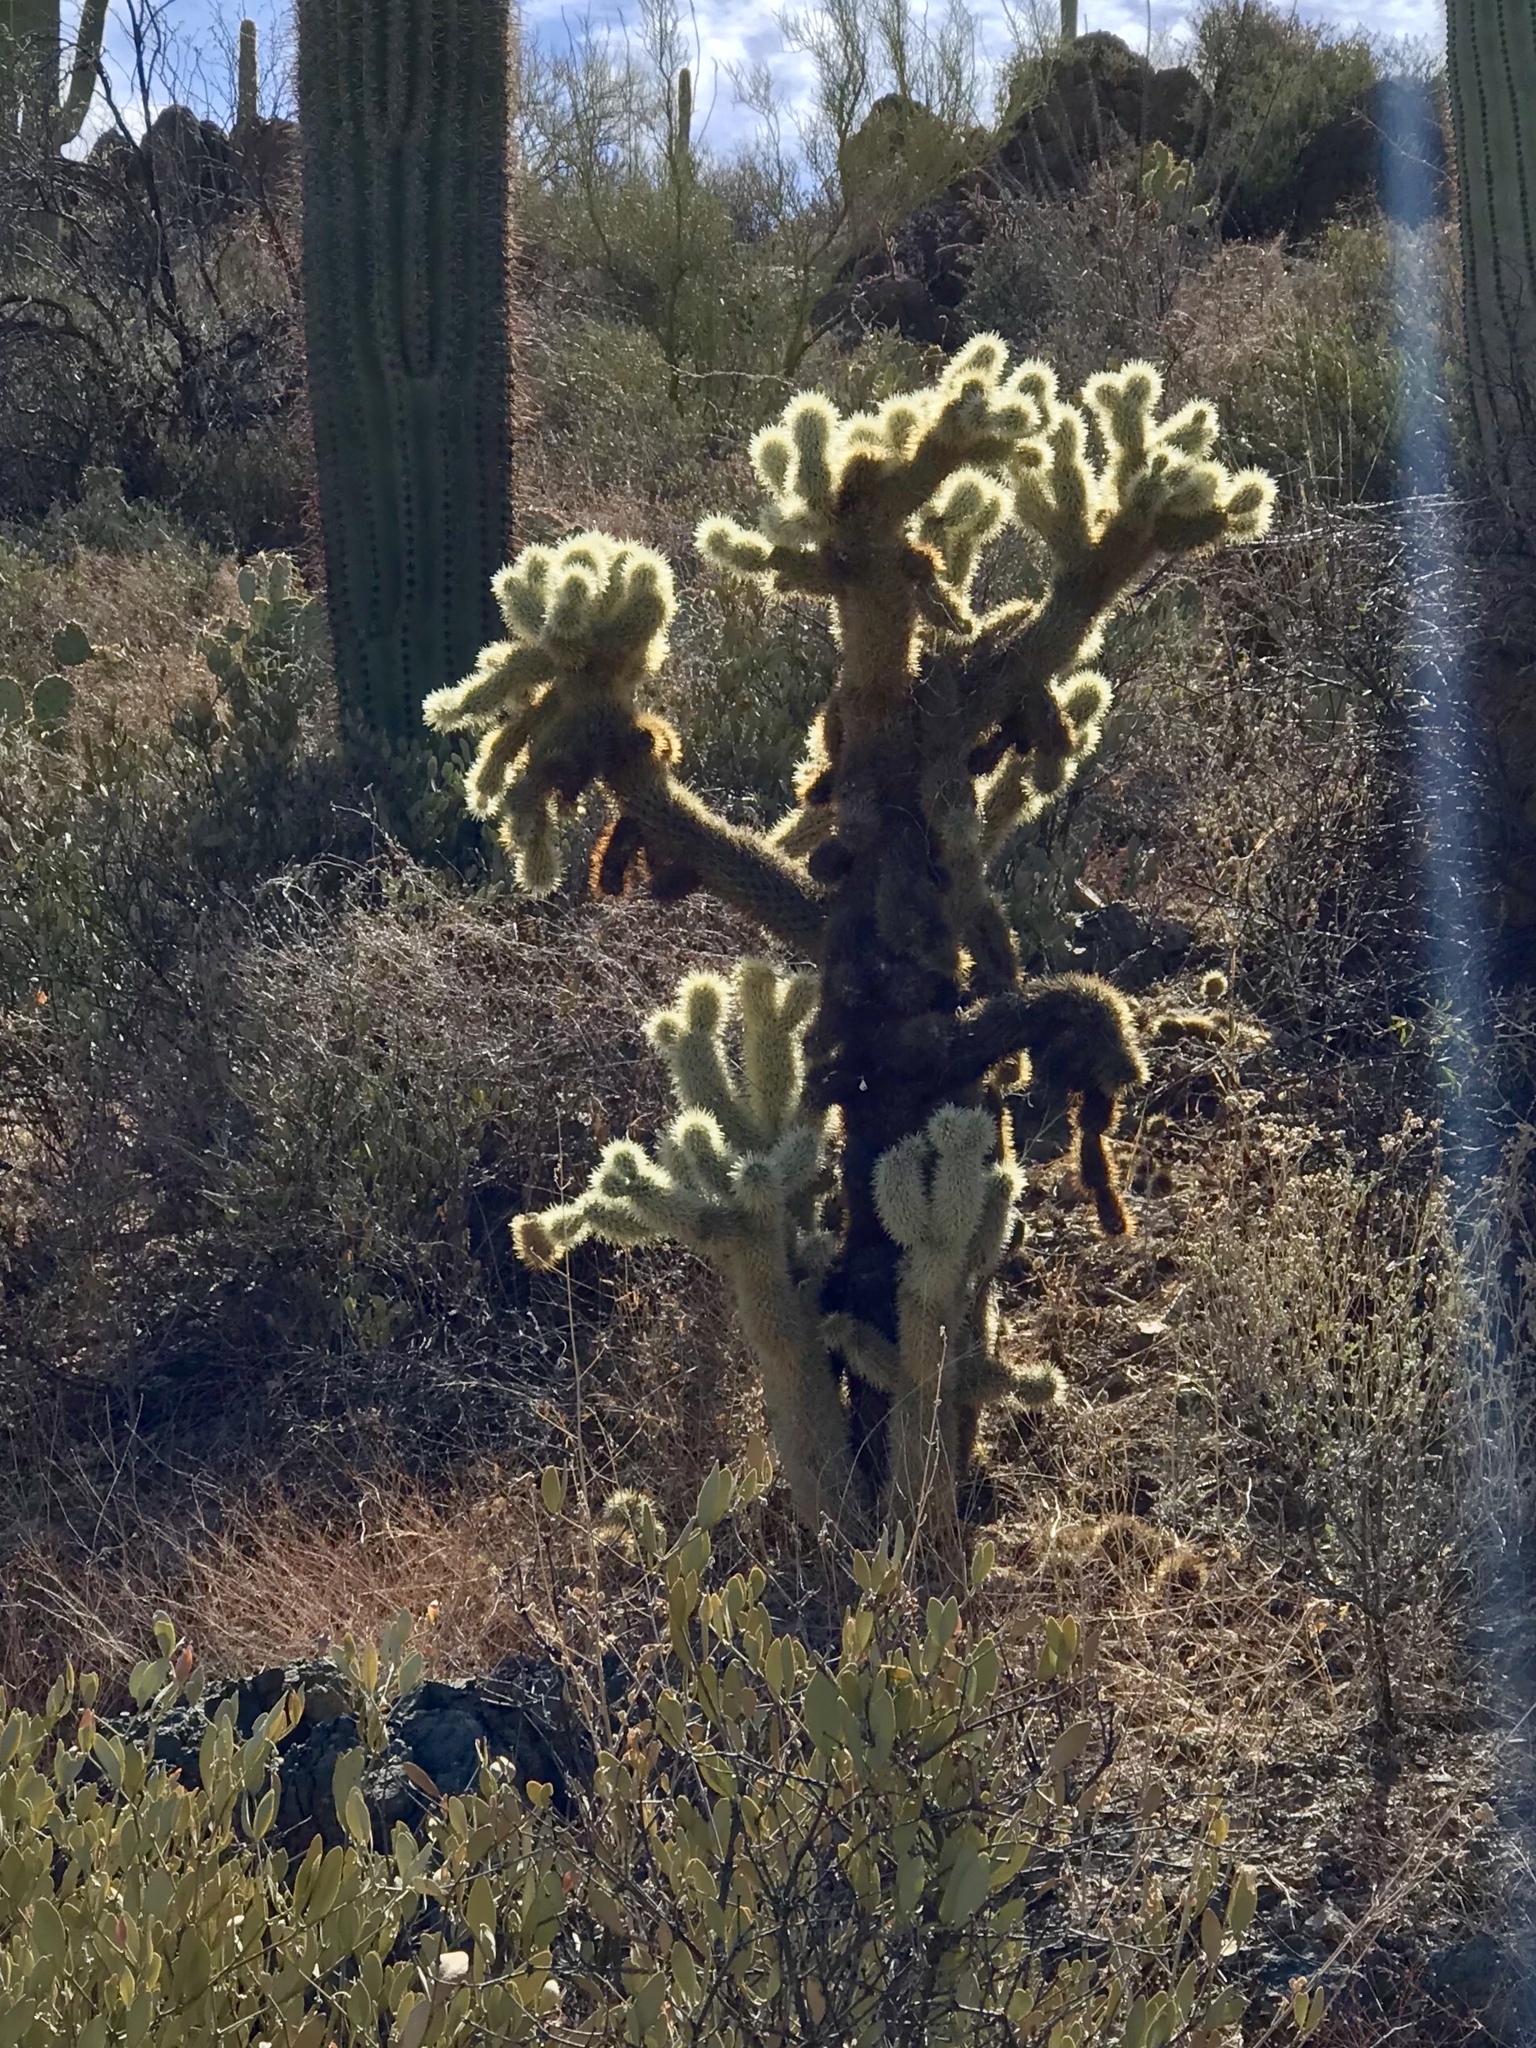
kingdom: Plantae
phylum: Tracheophyta
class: Magnoliopsida
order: Caryophyllales
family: Cactaceae
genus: Cylindropuntia
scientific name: Cylindropuntia fosbergii
